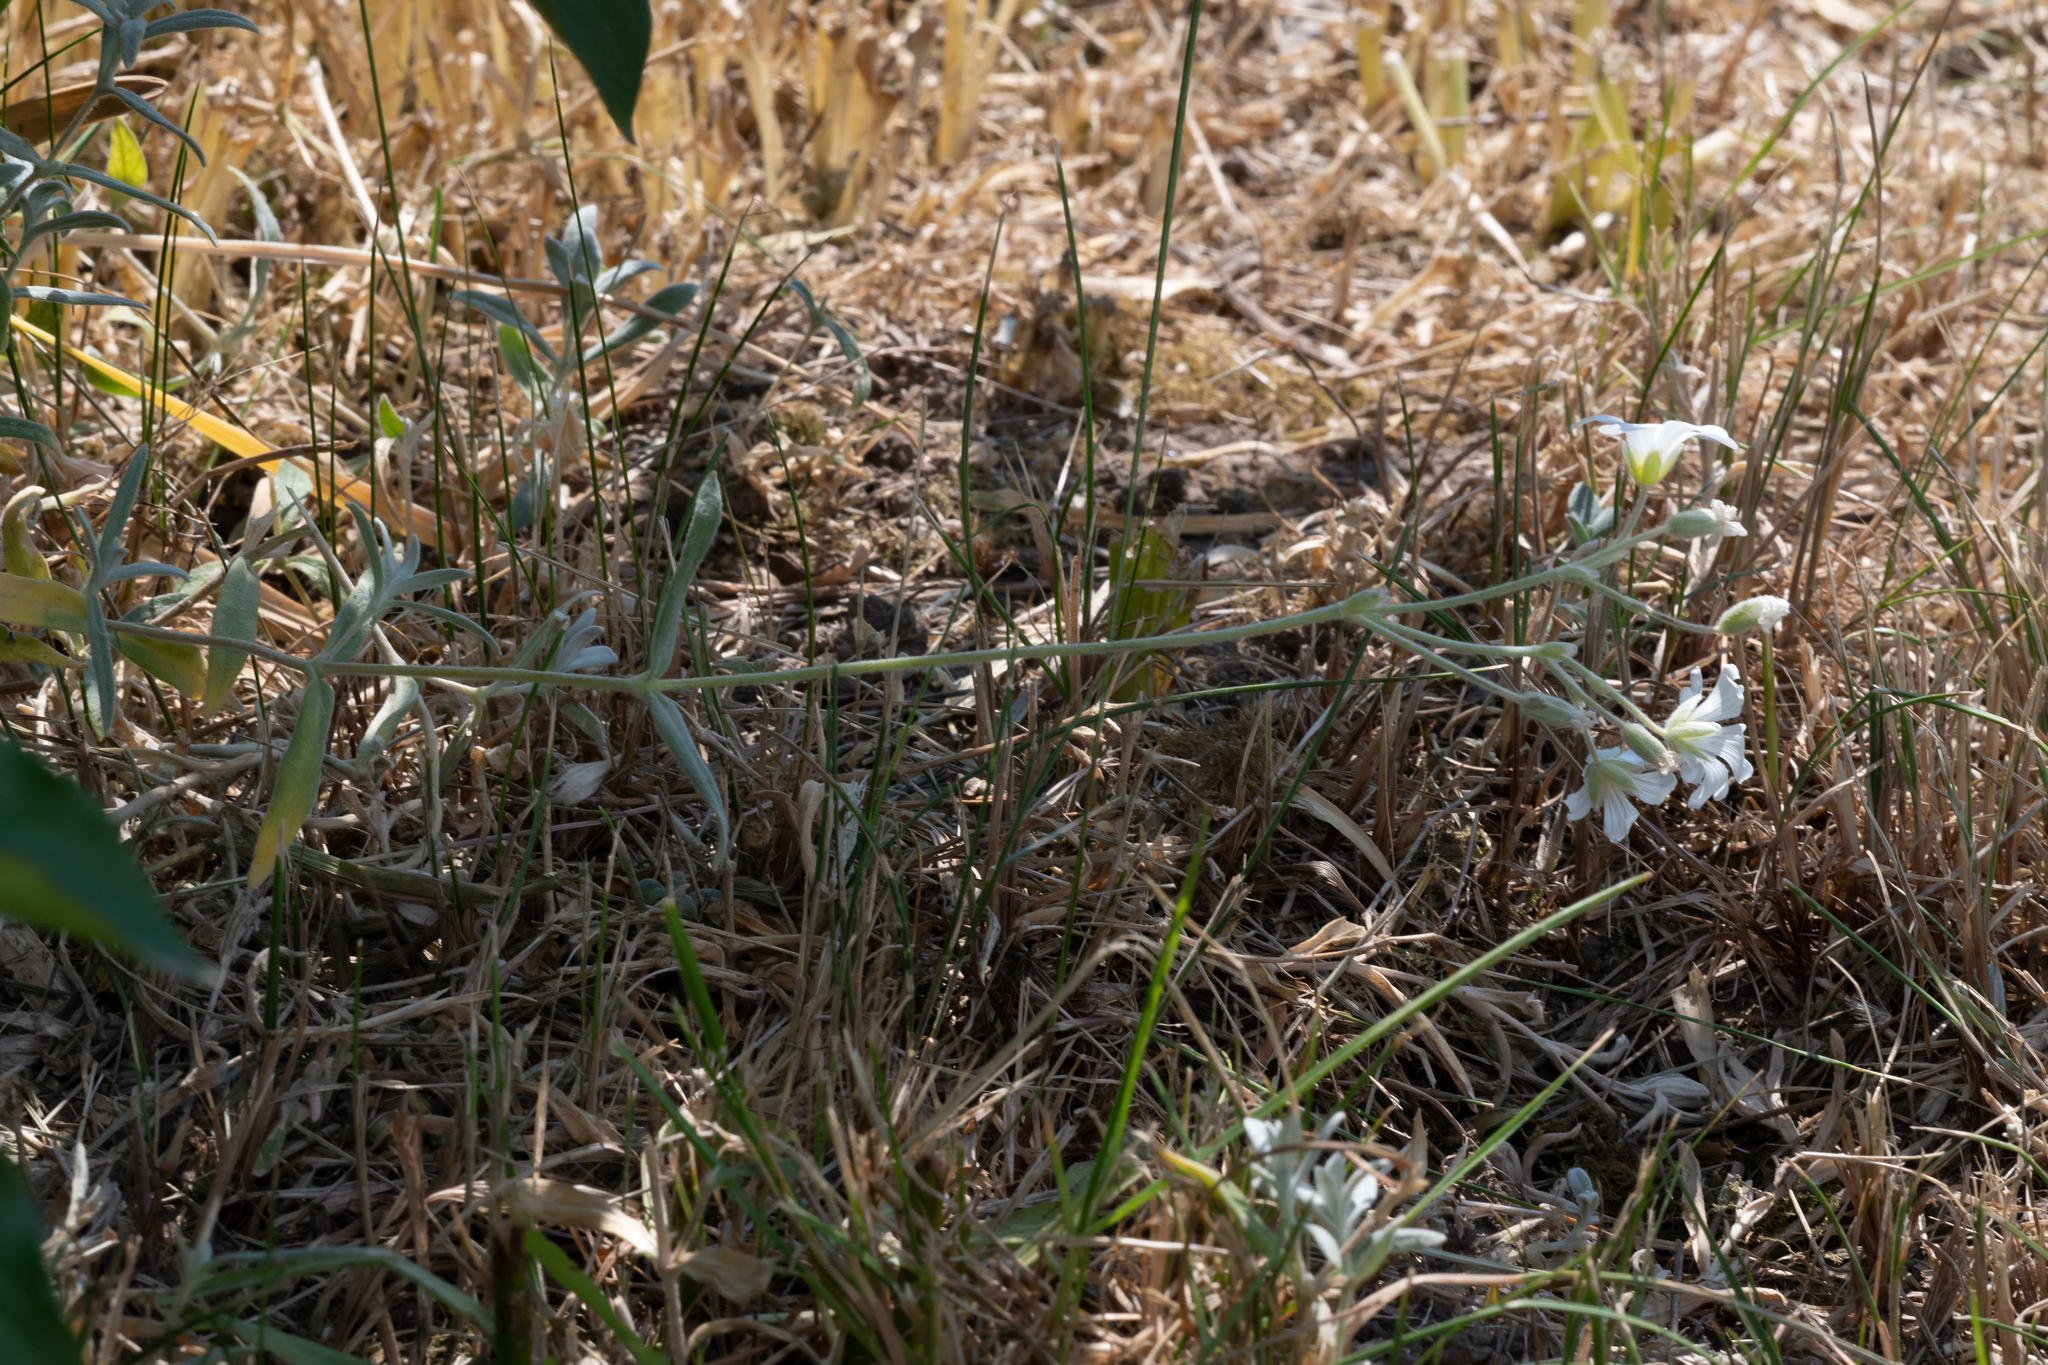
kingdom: Plantae
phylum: Tracheophyta
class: Magnoliopsida
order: Caryophyllales
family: Caryophyllaceae
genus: Cerastium
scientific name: Cerastium arvense
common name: Field mouse-ear
